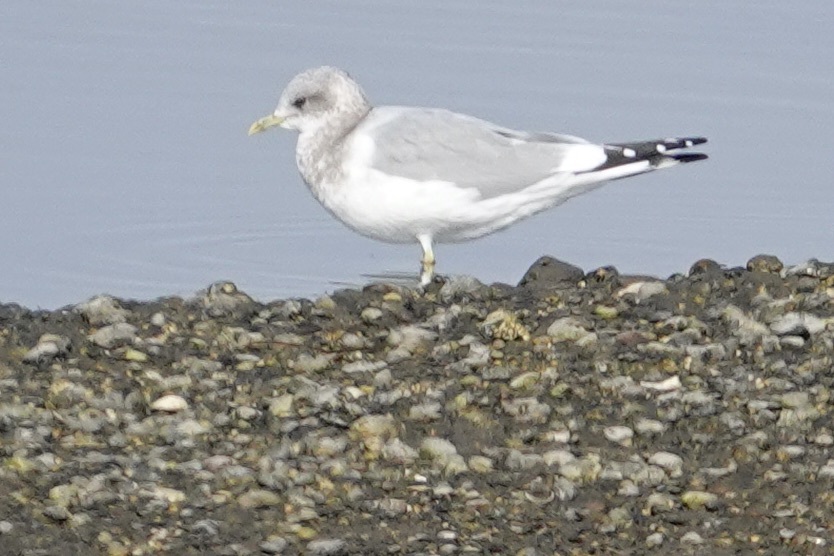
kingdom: Animalia
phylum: Chordata
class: Aves
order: Charadriiformes
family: Laridae
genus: Larus
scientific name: Larus brachyrhynchus
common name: Short-billed gull
